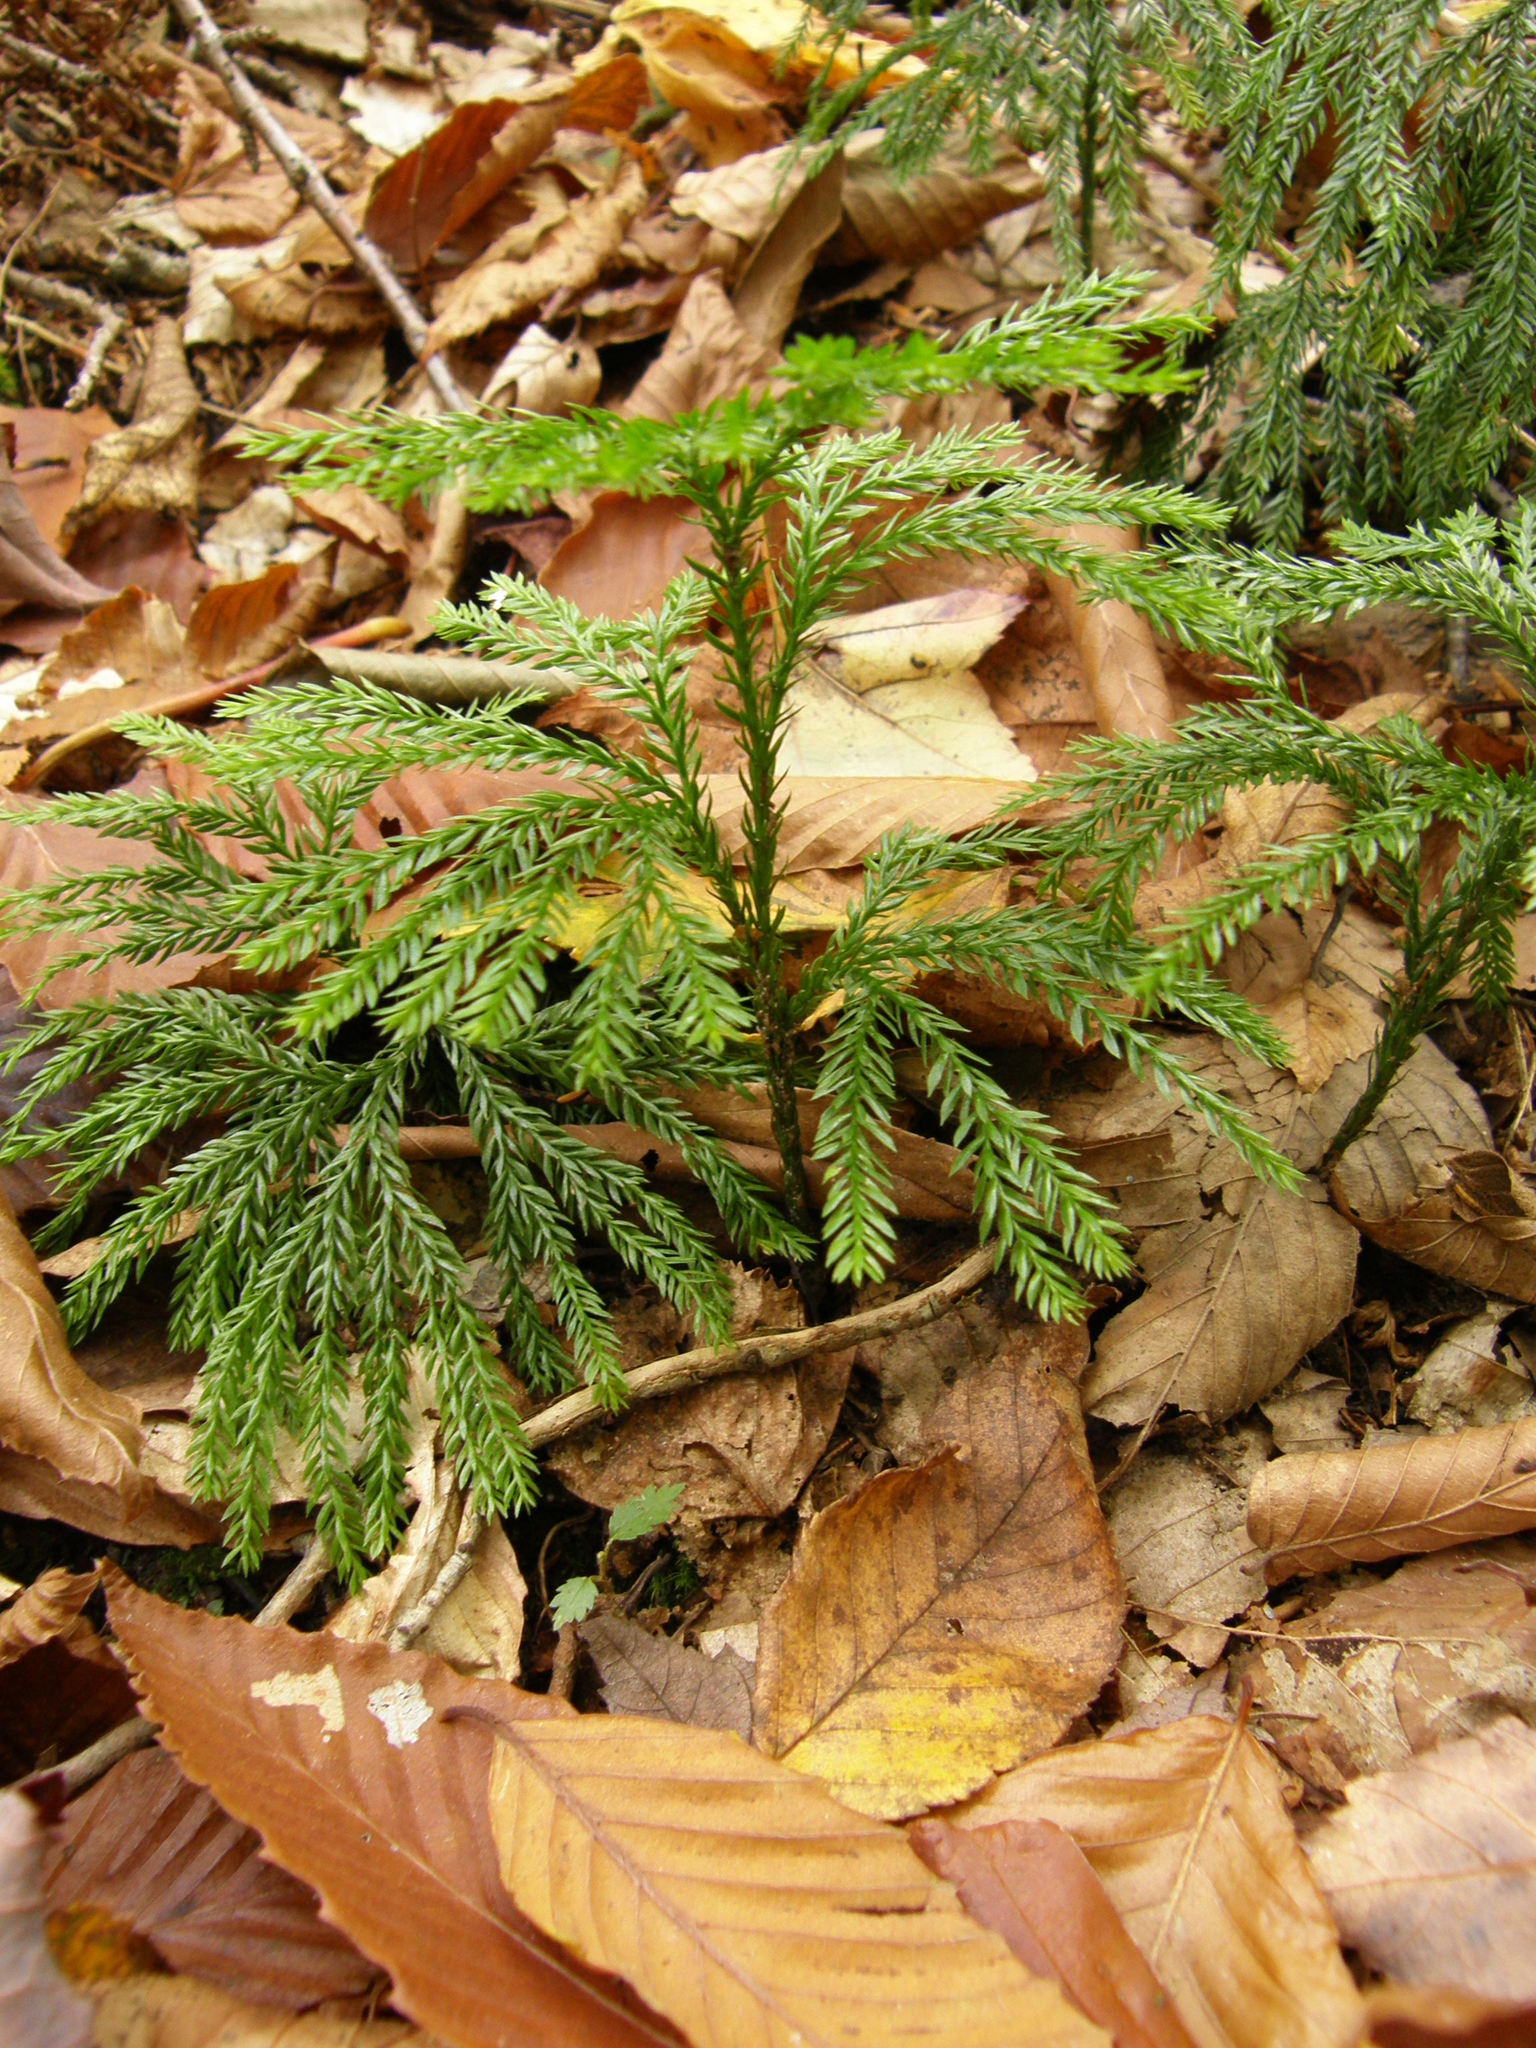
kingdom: Plantae
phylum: Tracheophyta
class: Lycopodiopsida
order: Lycopodiales
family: Lycopodiaceae
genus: Dendrolycopodium
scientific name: Dendrolycopodium obscurum
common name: Common ground-pine
